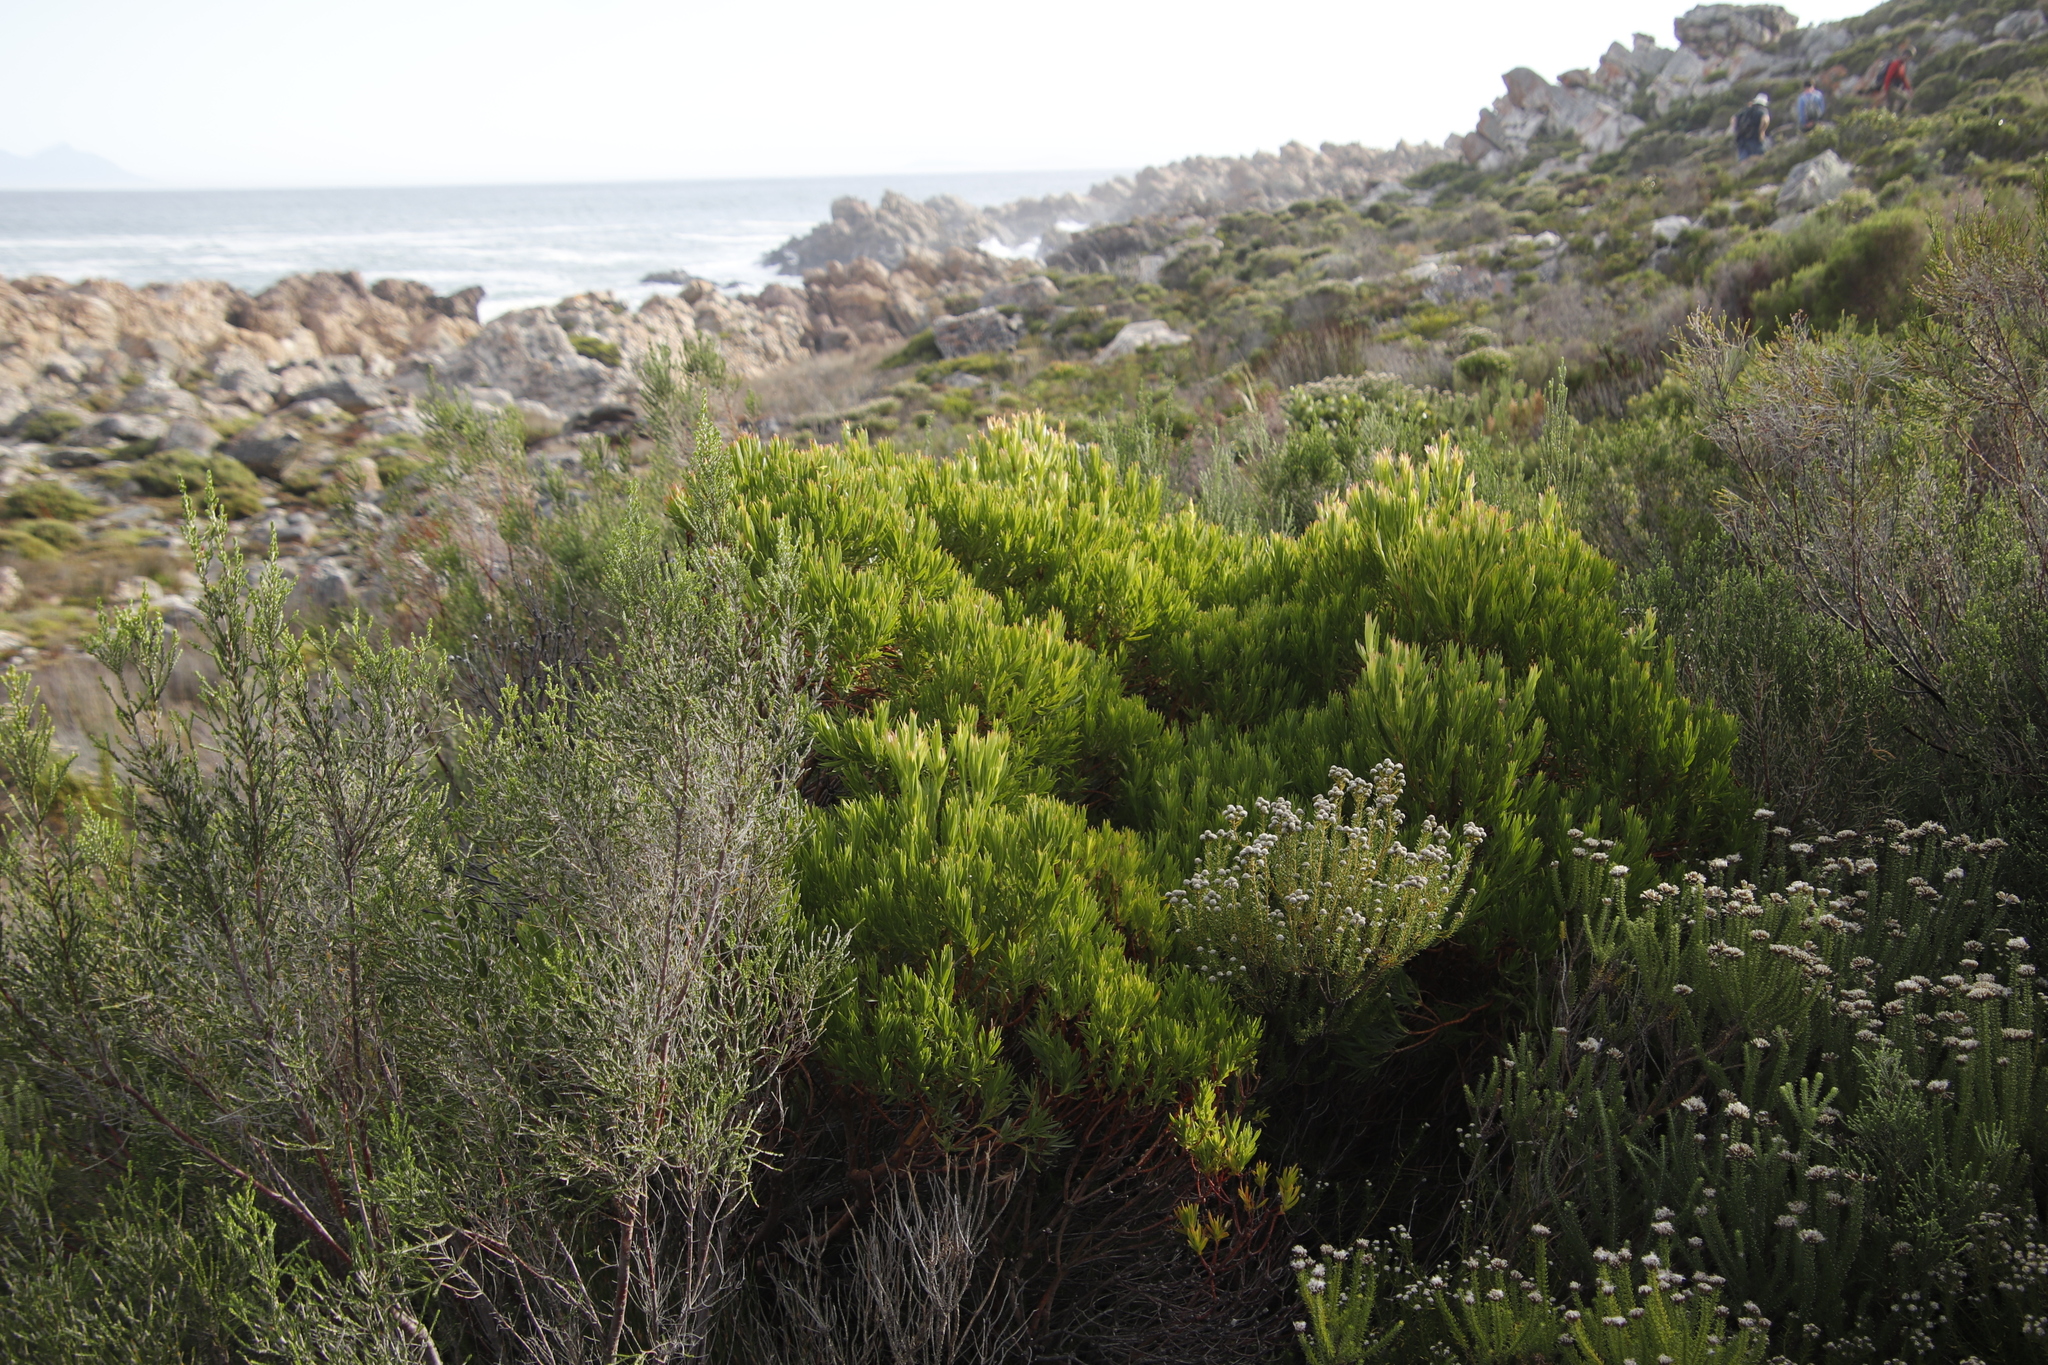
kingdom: Plantae
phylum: Tracheophyta
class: Magnoliopsida
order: Proteales
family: Proteaceae
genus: Leucadendron
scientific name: Leucadendron xanthoconus
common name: Sickle-leaf conebush
